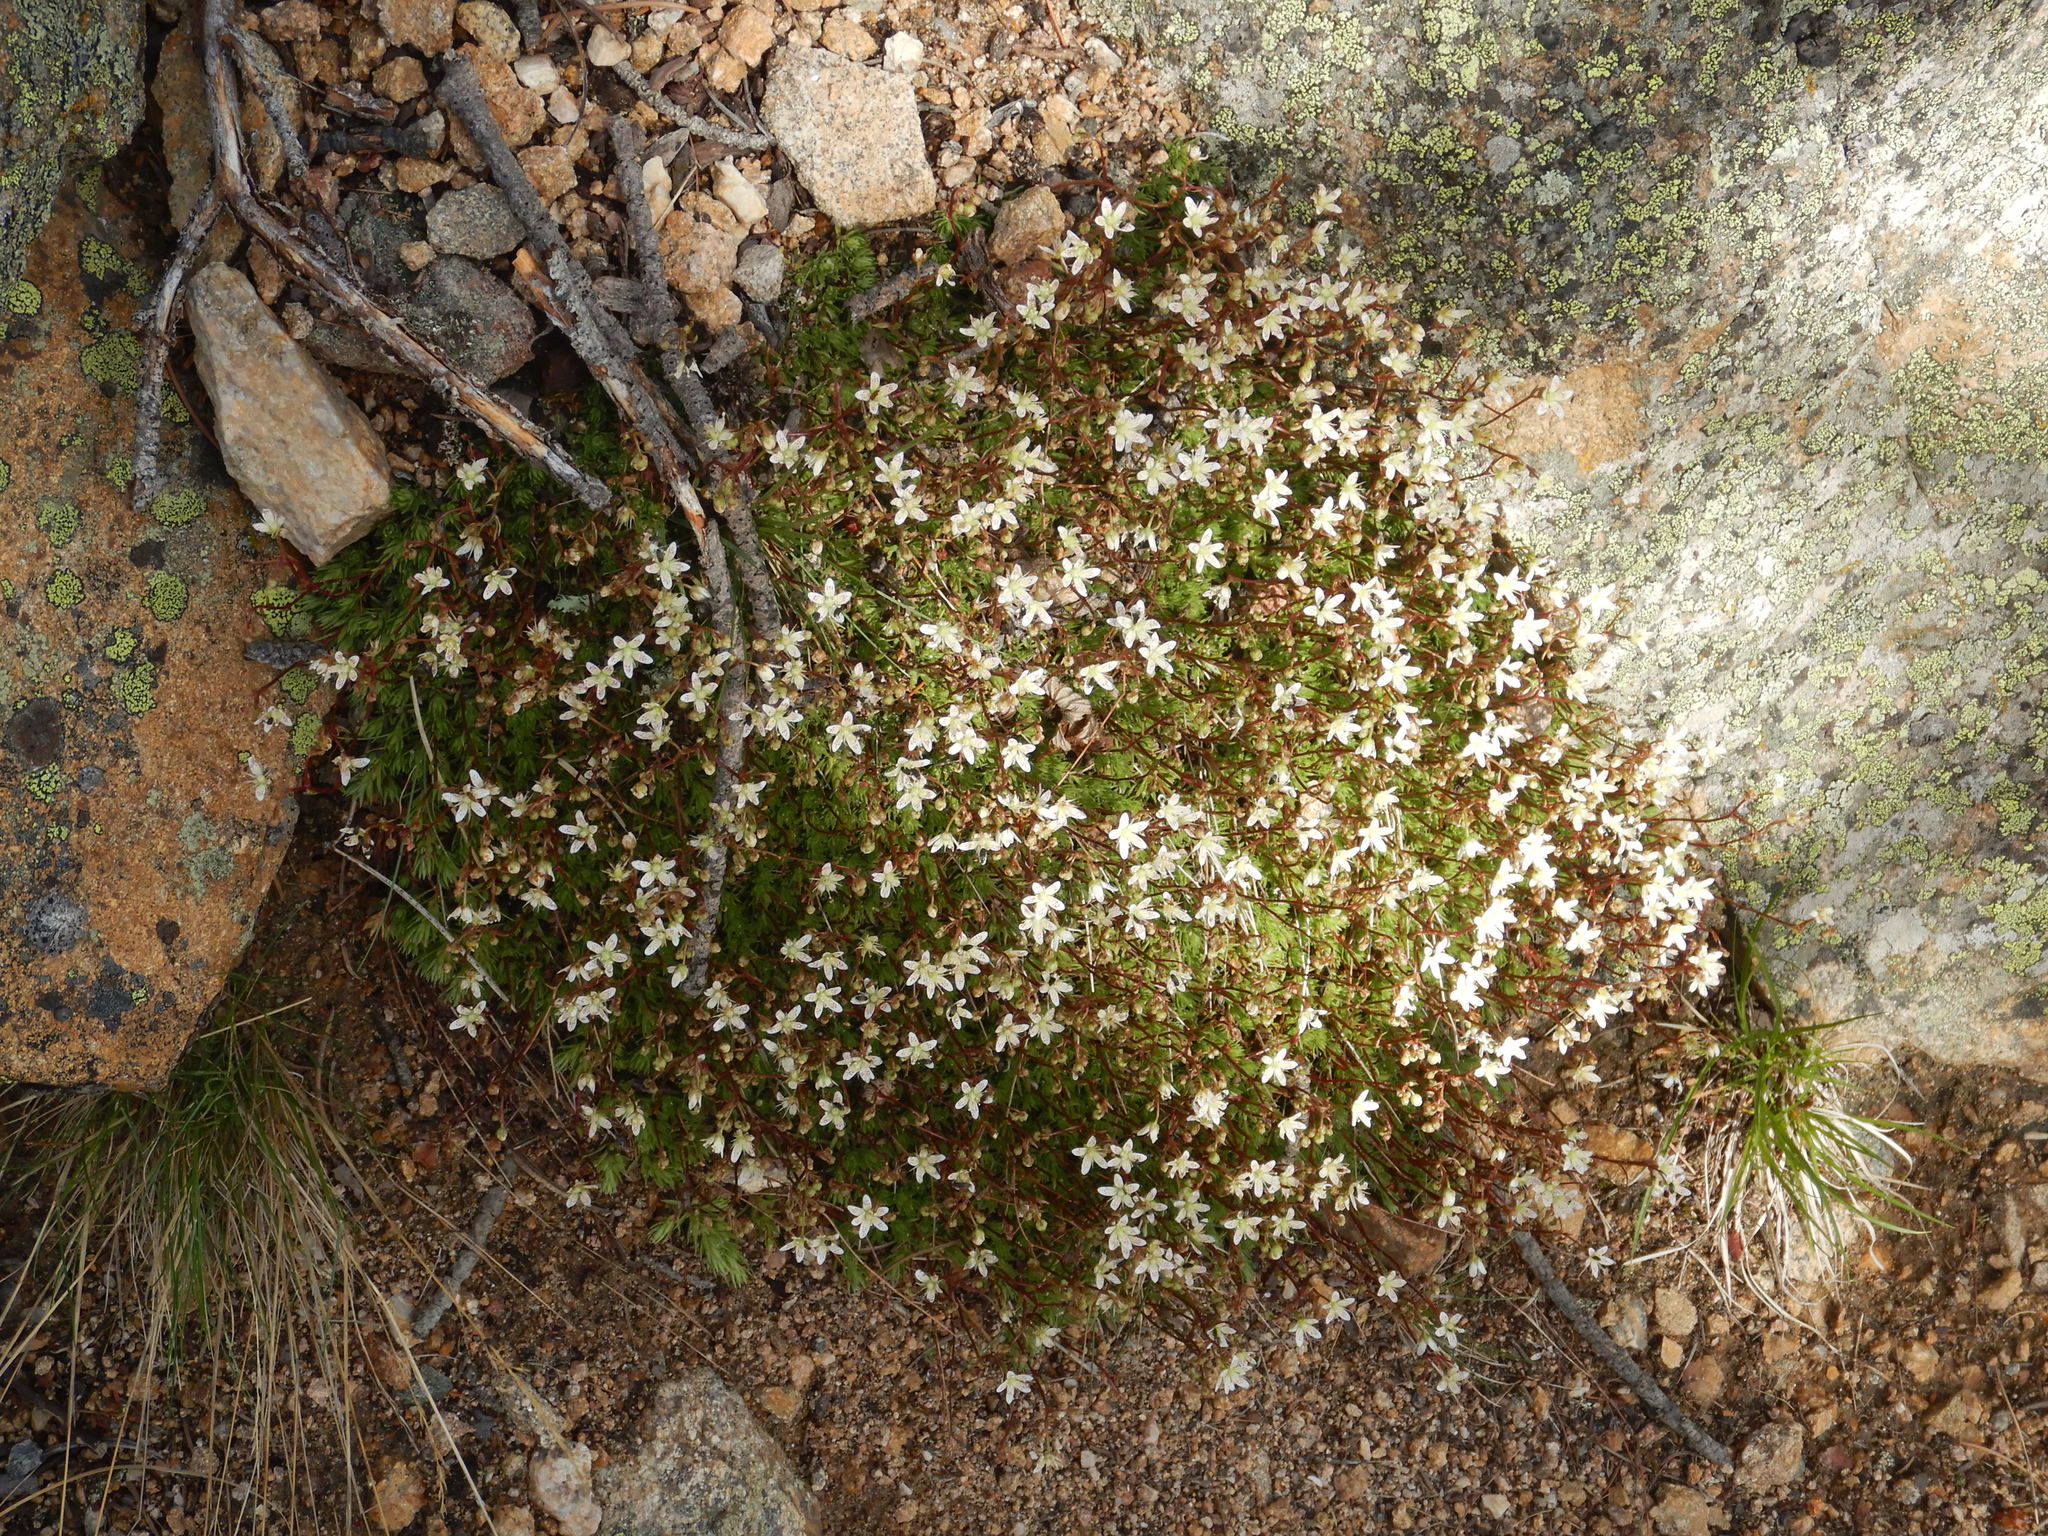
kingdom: Plantae
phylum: Tracheophyta
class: Magnoliopsida
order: Saxifragales
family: Saxifragaceae
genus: Saxifraga
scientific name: Saxifraga bronchialis
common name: Matted saxifrage
